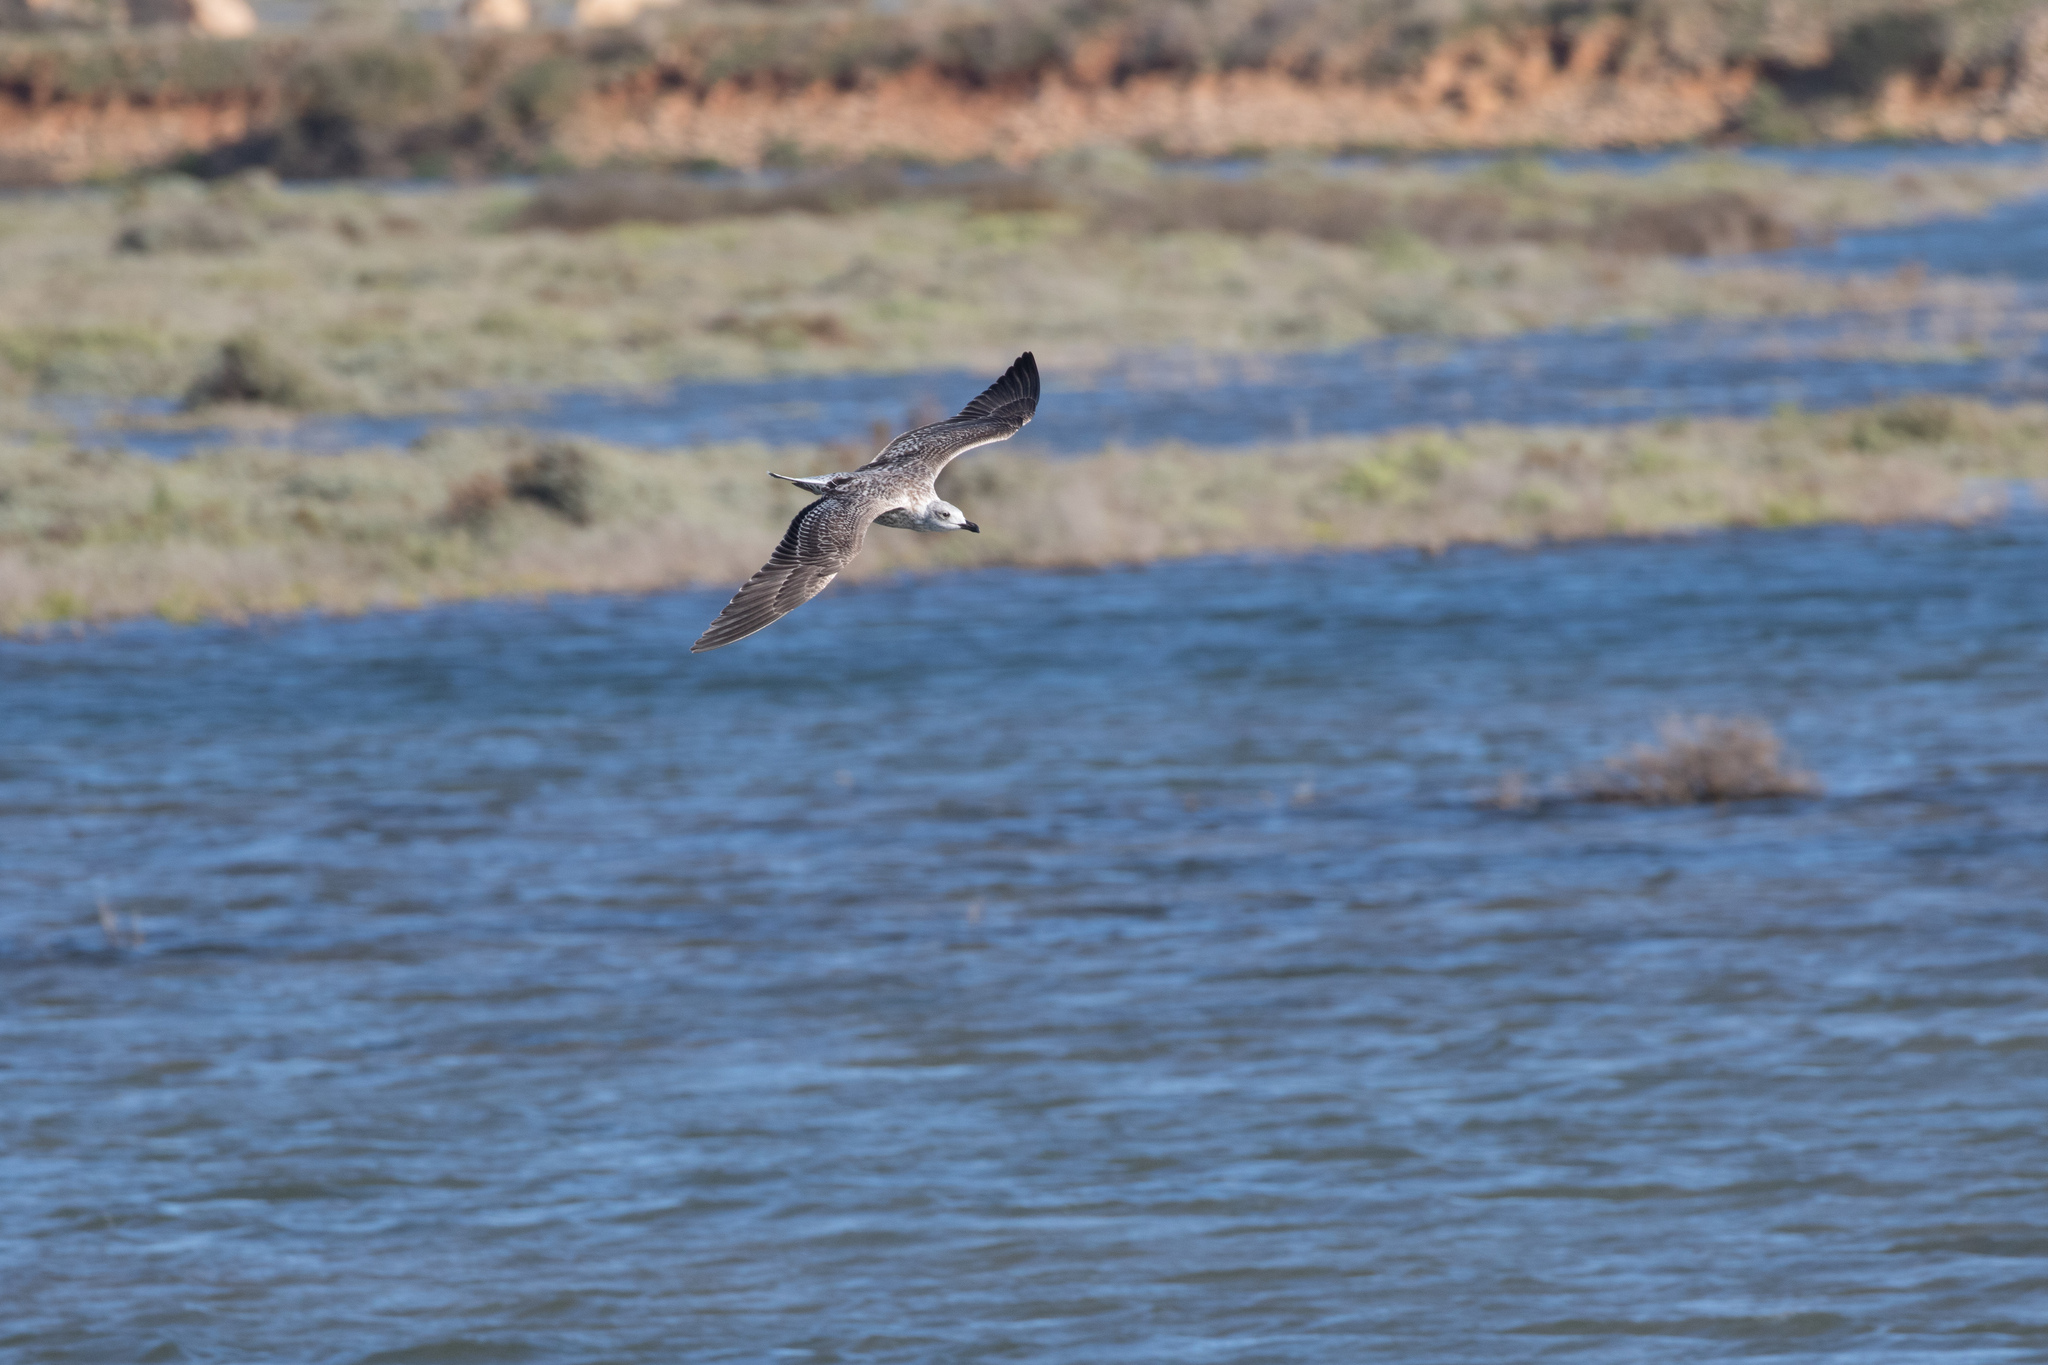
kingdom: Animalia
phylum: Chordata
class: Aves
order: Charadriiformes
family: Laridae
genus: Larus
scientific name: Larus michahellis
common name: Yellow-legged gull
